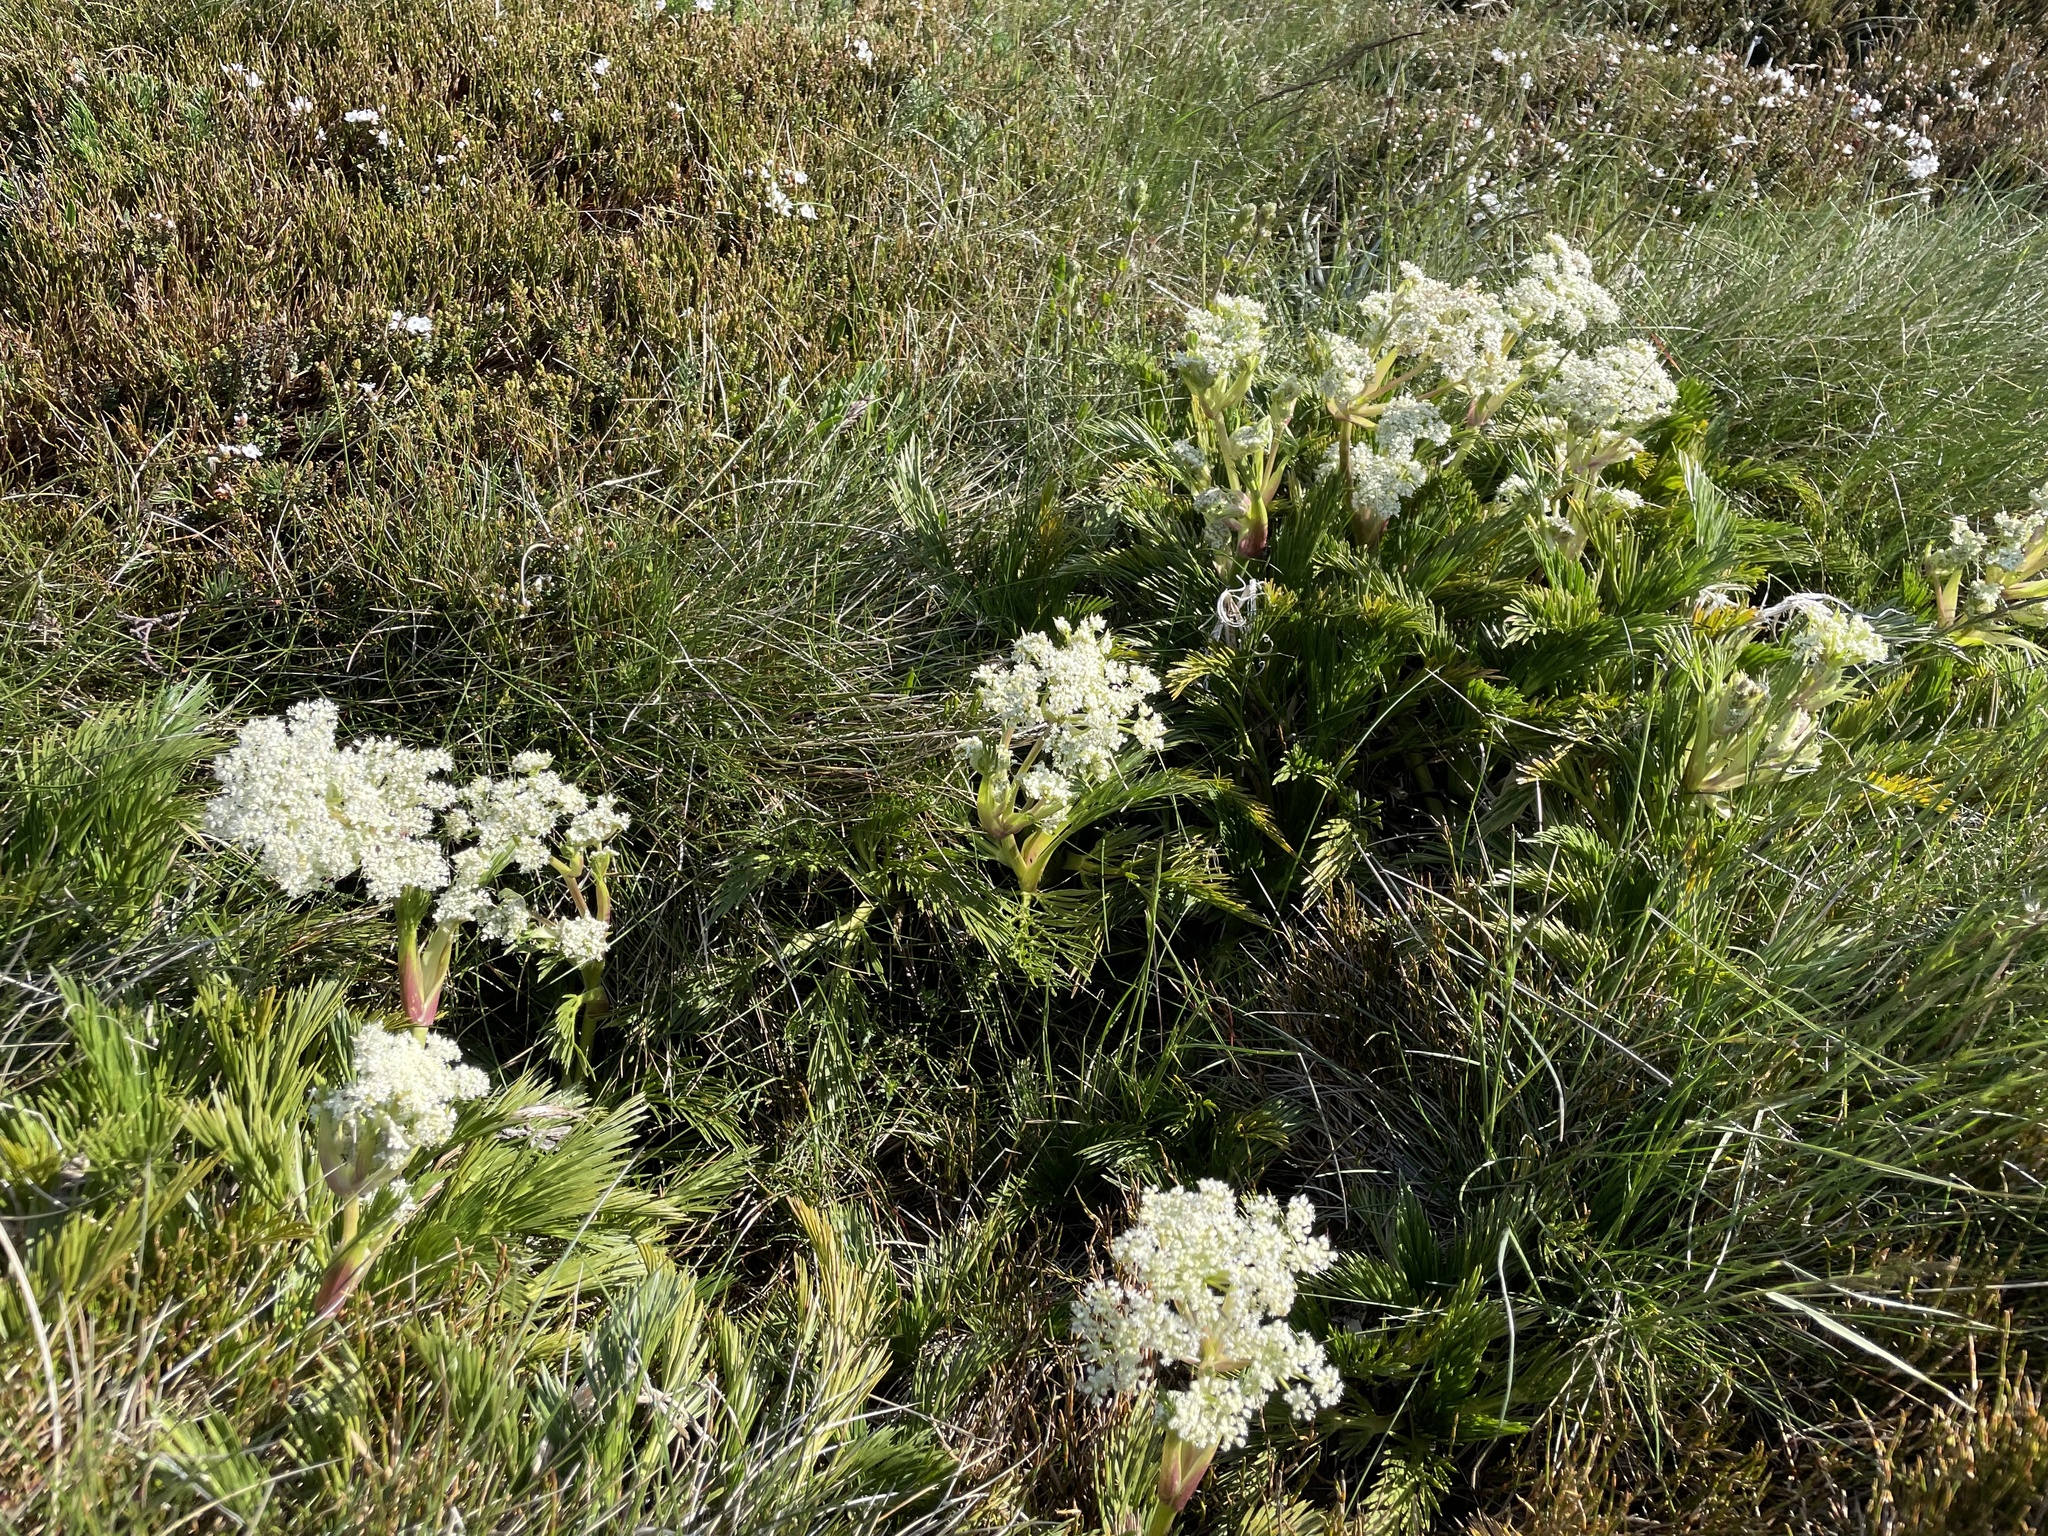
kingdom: Plantae
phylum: Tracheophyta
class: Magnoliopsida
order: Apiales
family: Apiaceae
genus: Aciphylla
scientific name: Aciphylla glacialis
